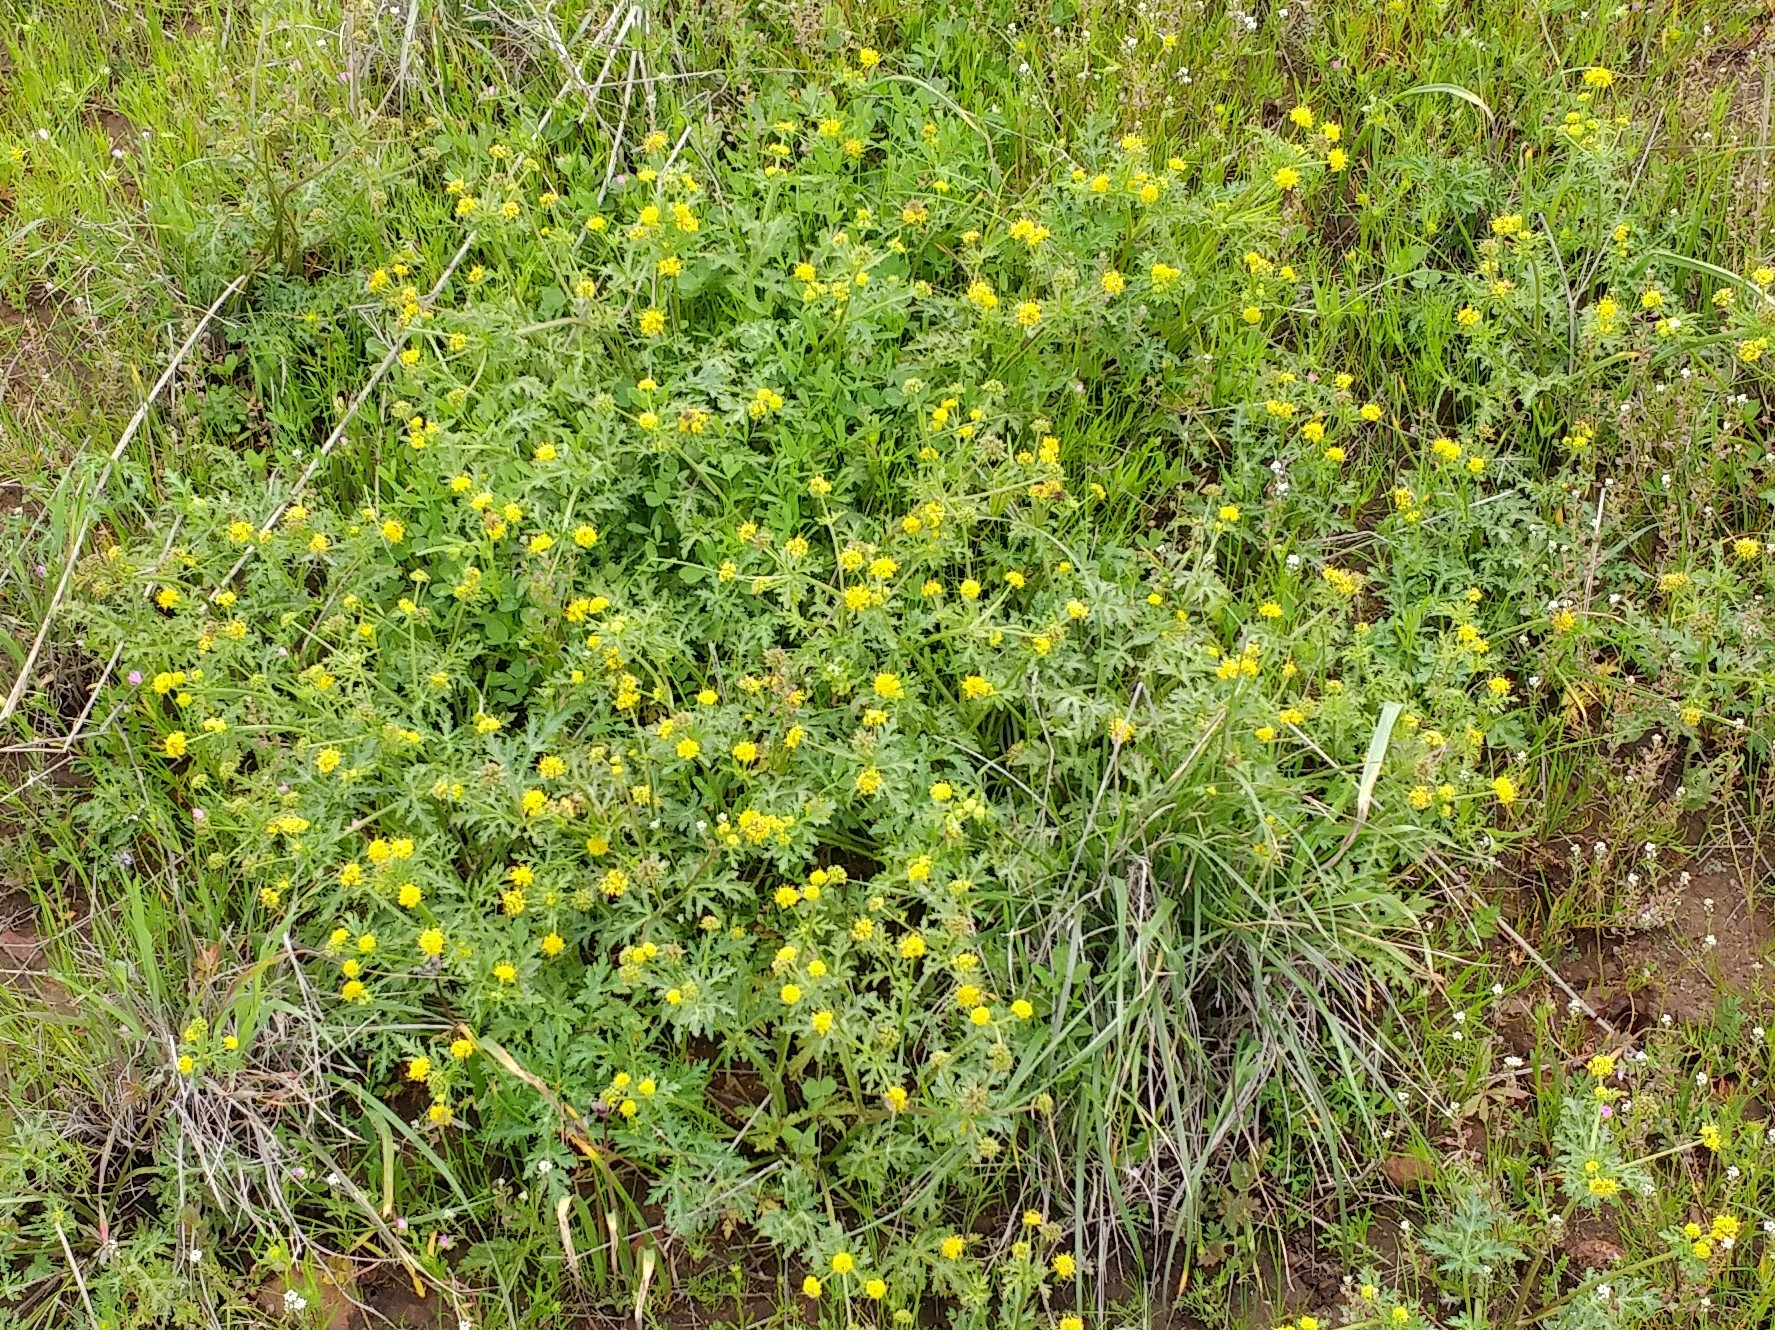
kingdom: Plantae
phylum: Tracheophyta
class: Magnoliopsida
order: Apiales
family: Apiaceae
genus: Sanicula
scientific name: Sanicula arguta
